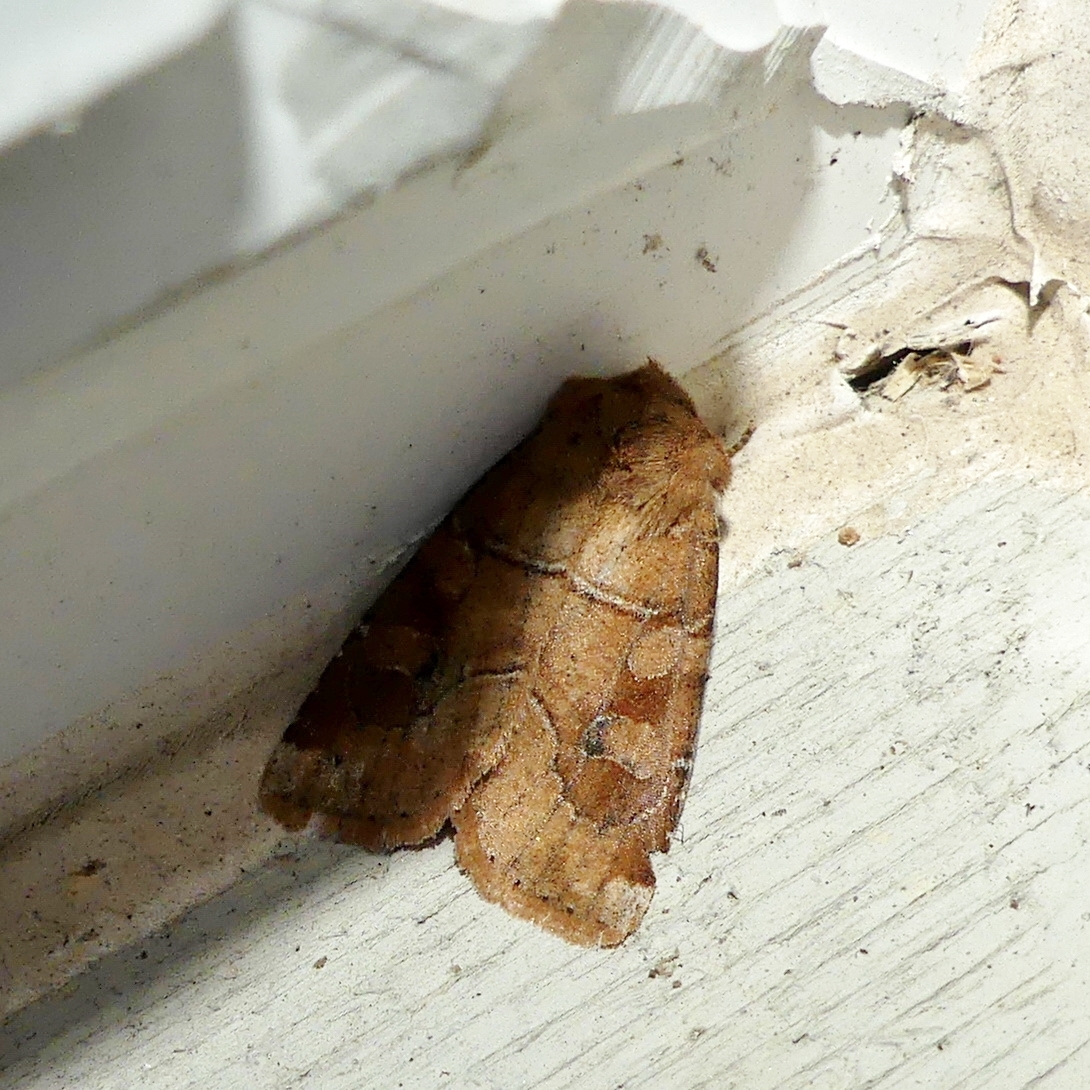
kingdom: Animalia
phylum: Arthropoda
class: Insecta
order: Lepidoptera
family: Noctuidae
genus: Crocigrapha
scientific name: Crocigrapha normani
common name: Norman's quaker
